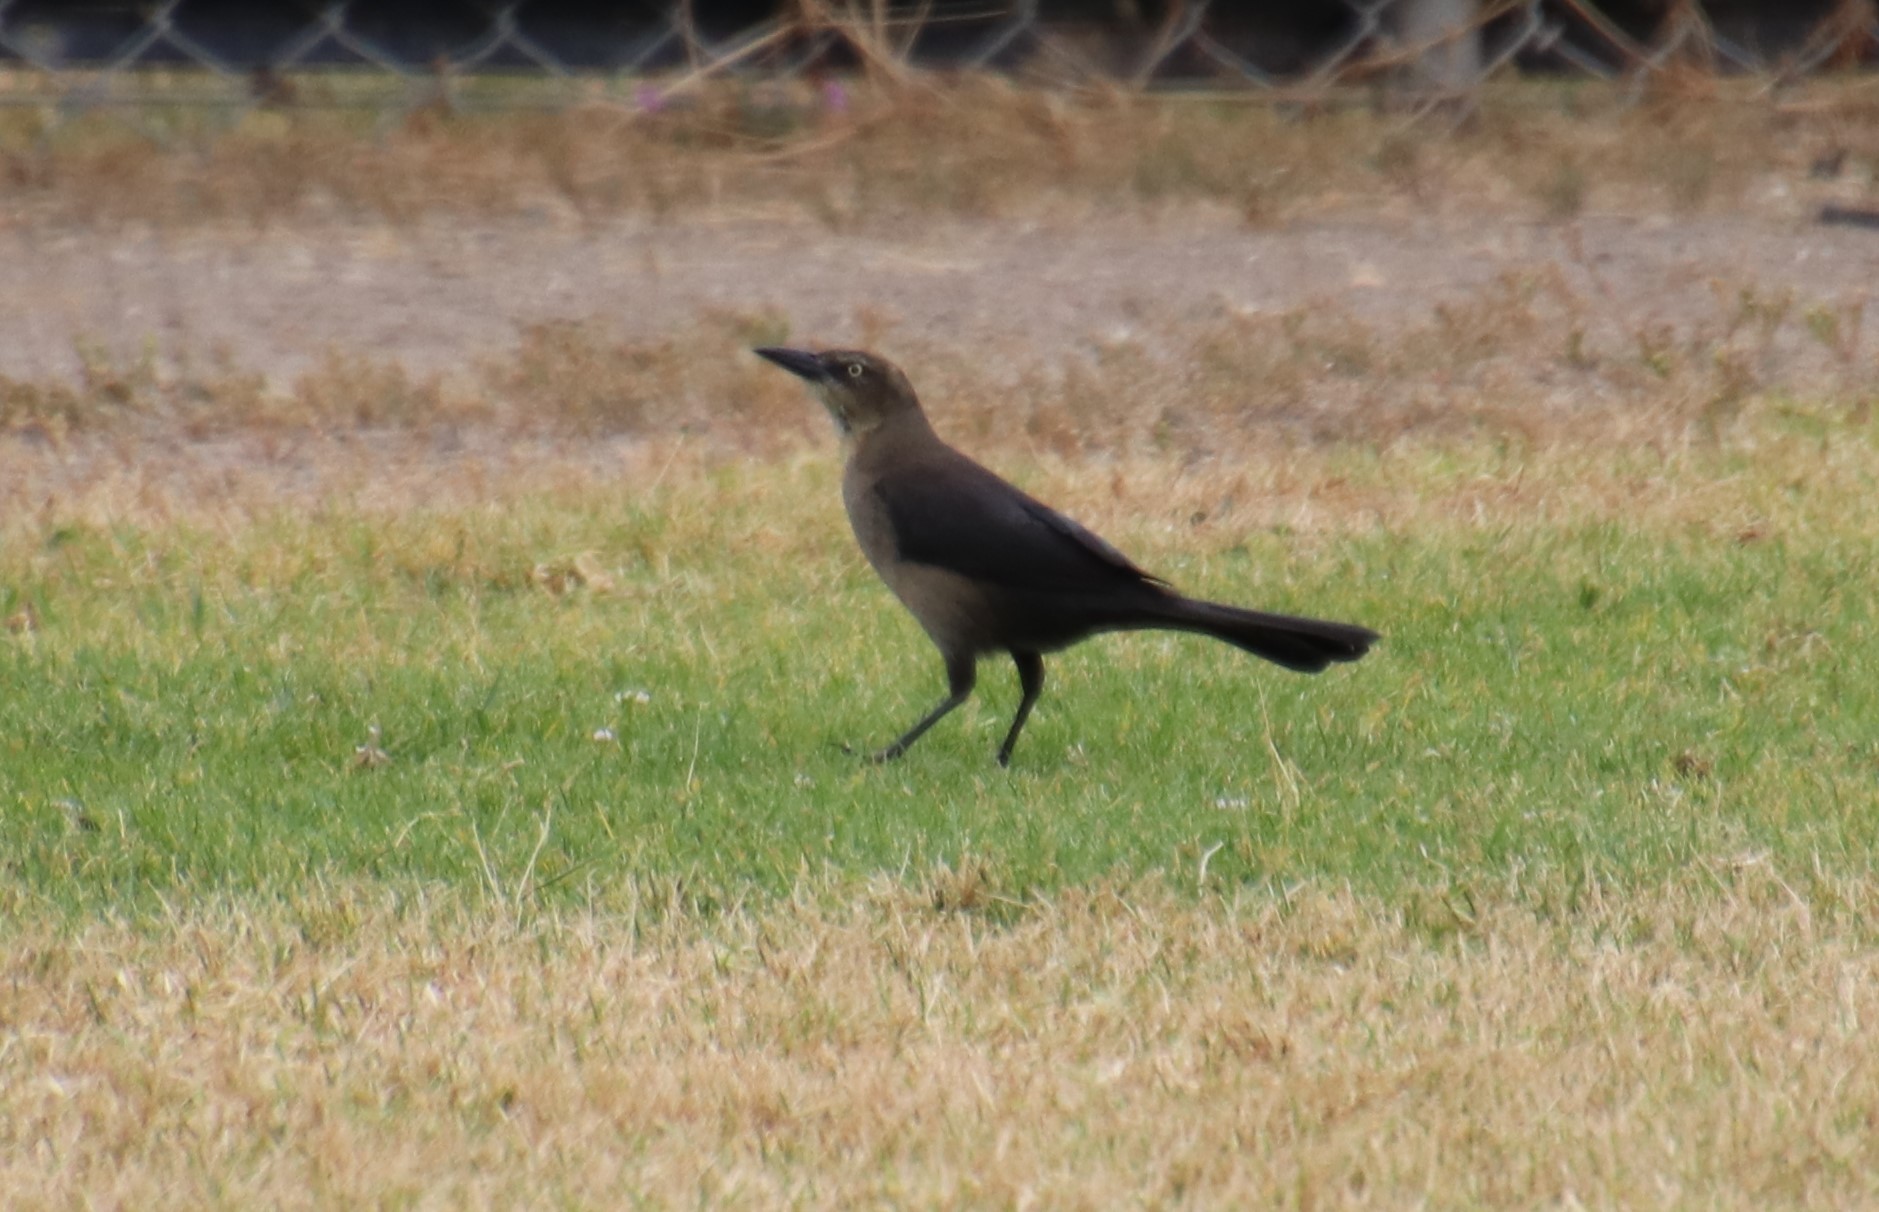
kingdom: Animalia
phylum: Chordata
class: Aves
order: Passeriformes
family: Icteridae
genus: Quiscalus
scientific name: Quiscalus mexicanus
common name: Great-tailed grackle
